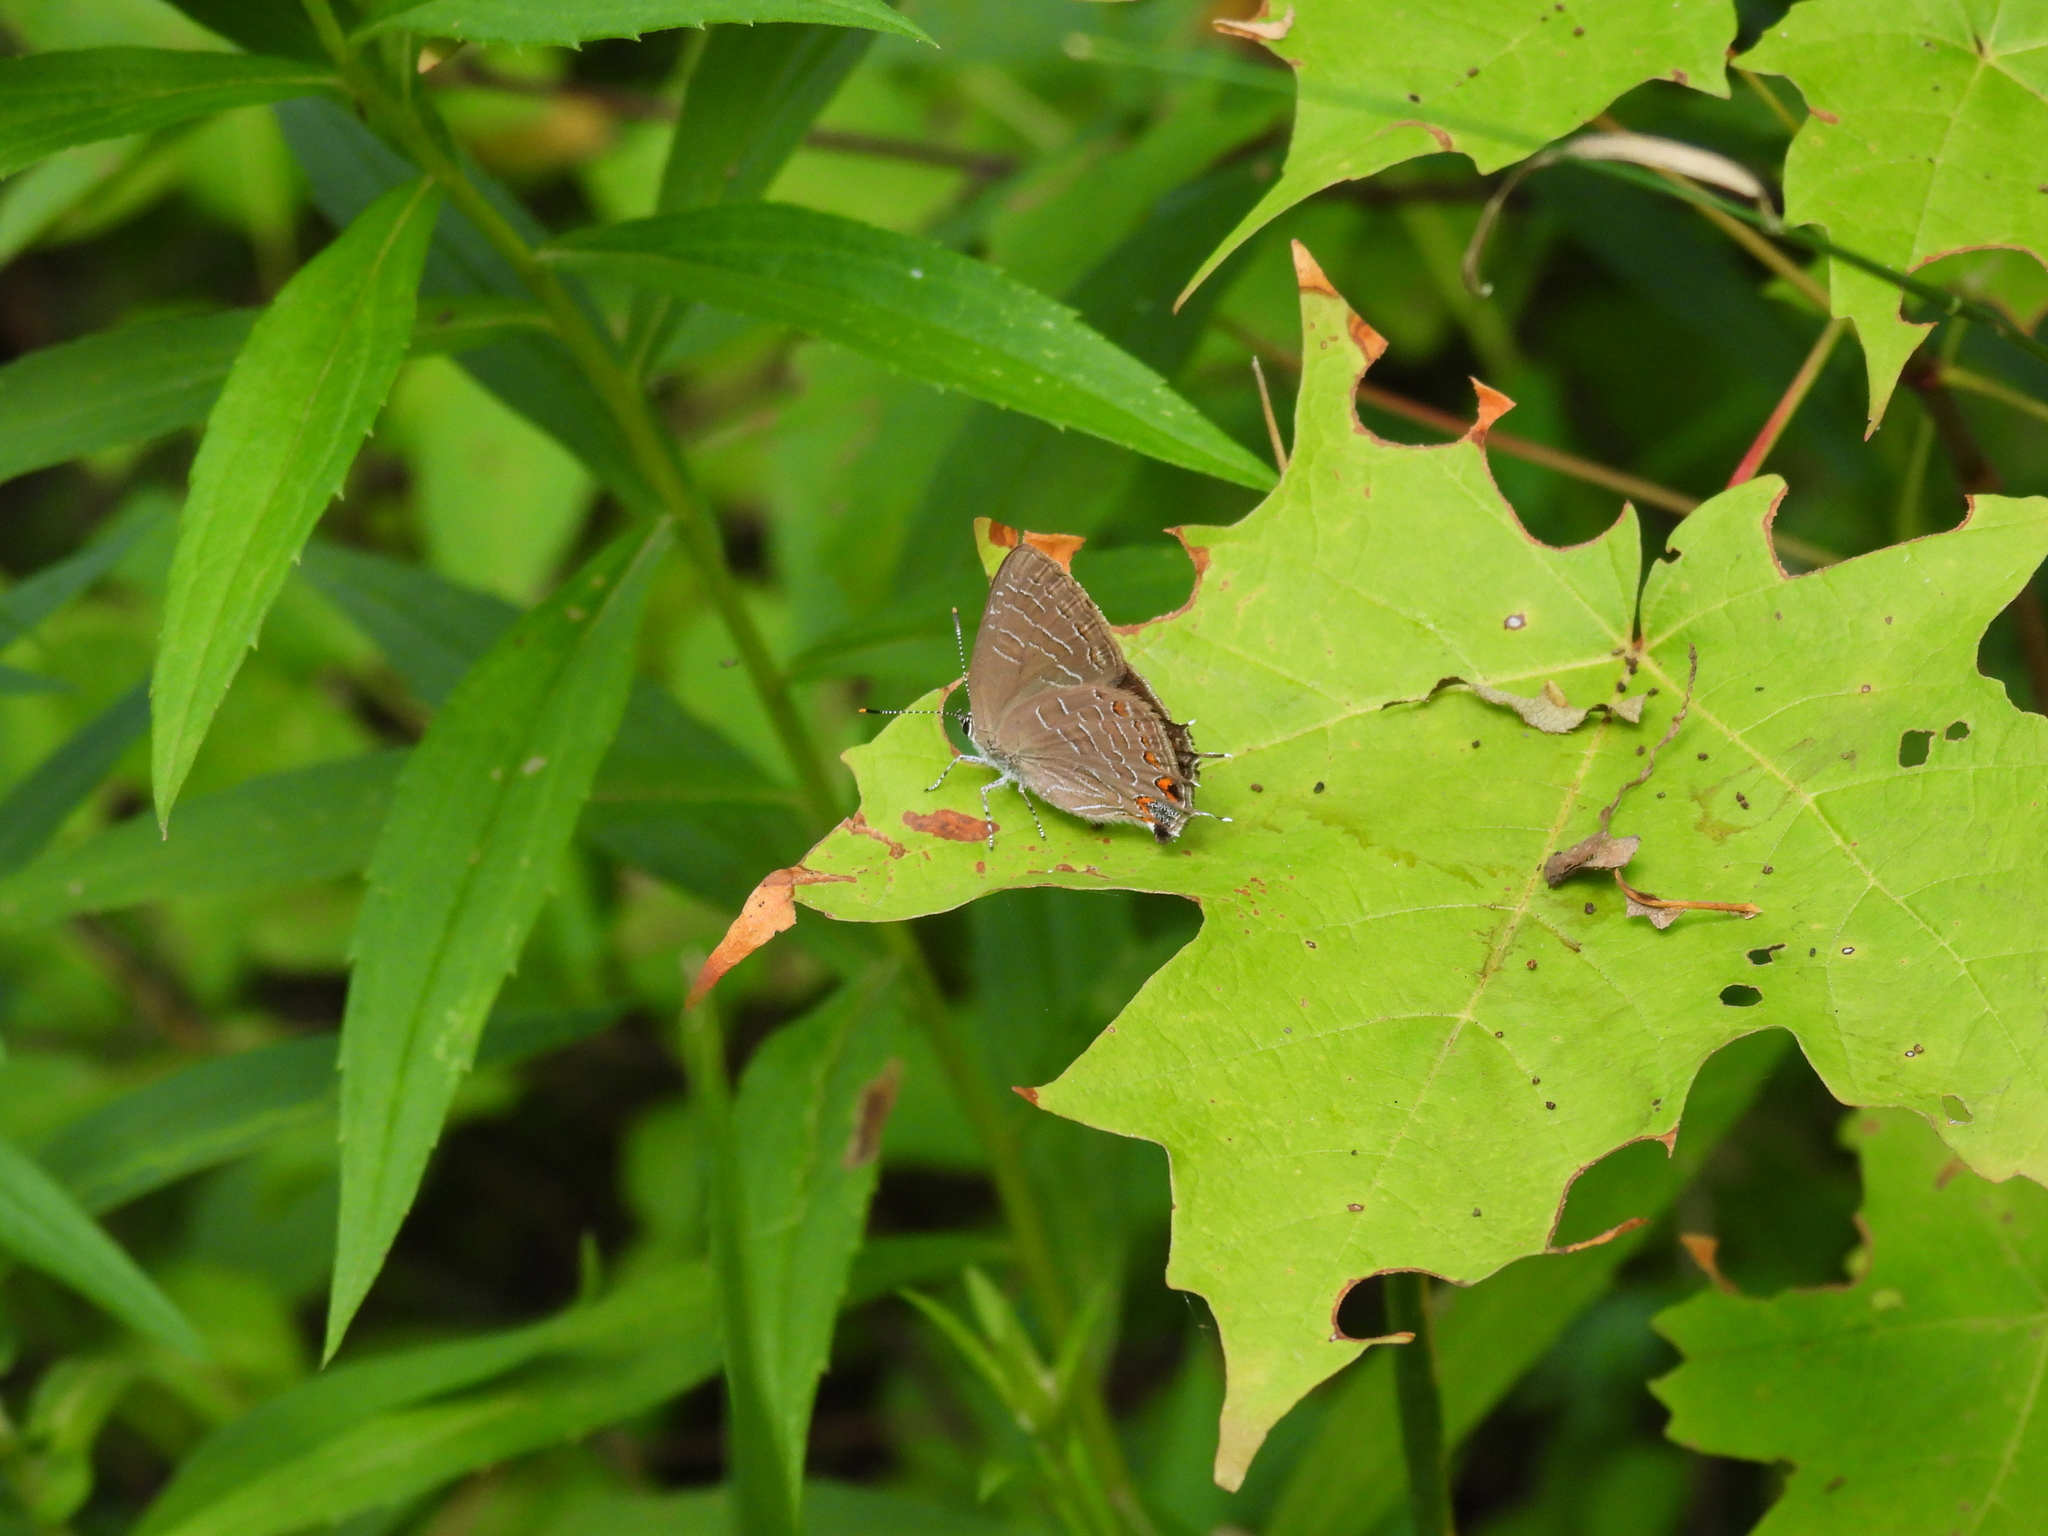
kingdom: Animalia
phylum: Arthropoda
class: Insecta
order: Lepidoptera
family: Lycaenidae
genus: Satyrium
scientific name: Satyrium liparops
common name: Striped hairstreak
